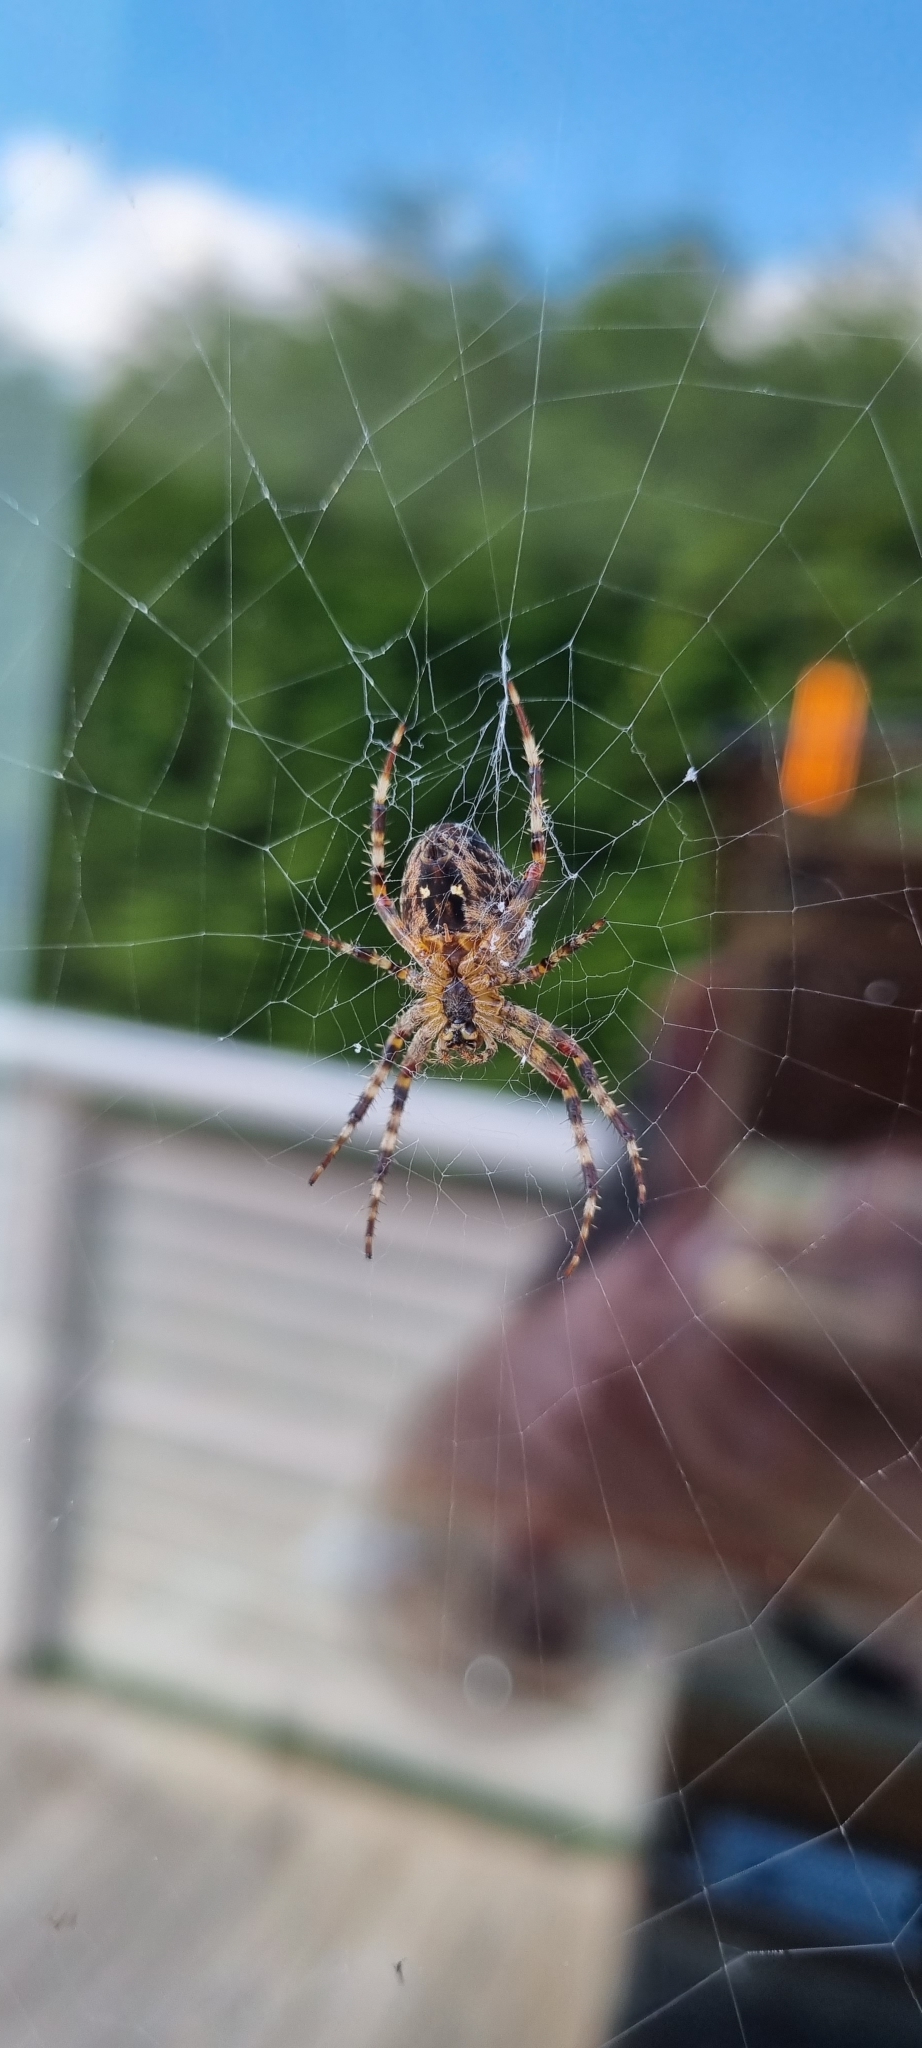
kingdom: Animalia
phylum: Arthropoda
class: Arachnida
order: Araneae
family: Araneidae
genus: Araneus
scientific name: Araneus diadematus
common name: Cross orbweaver
